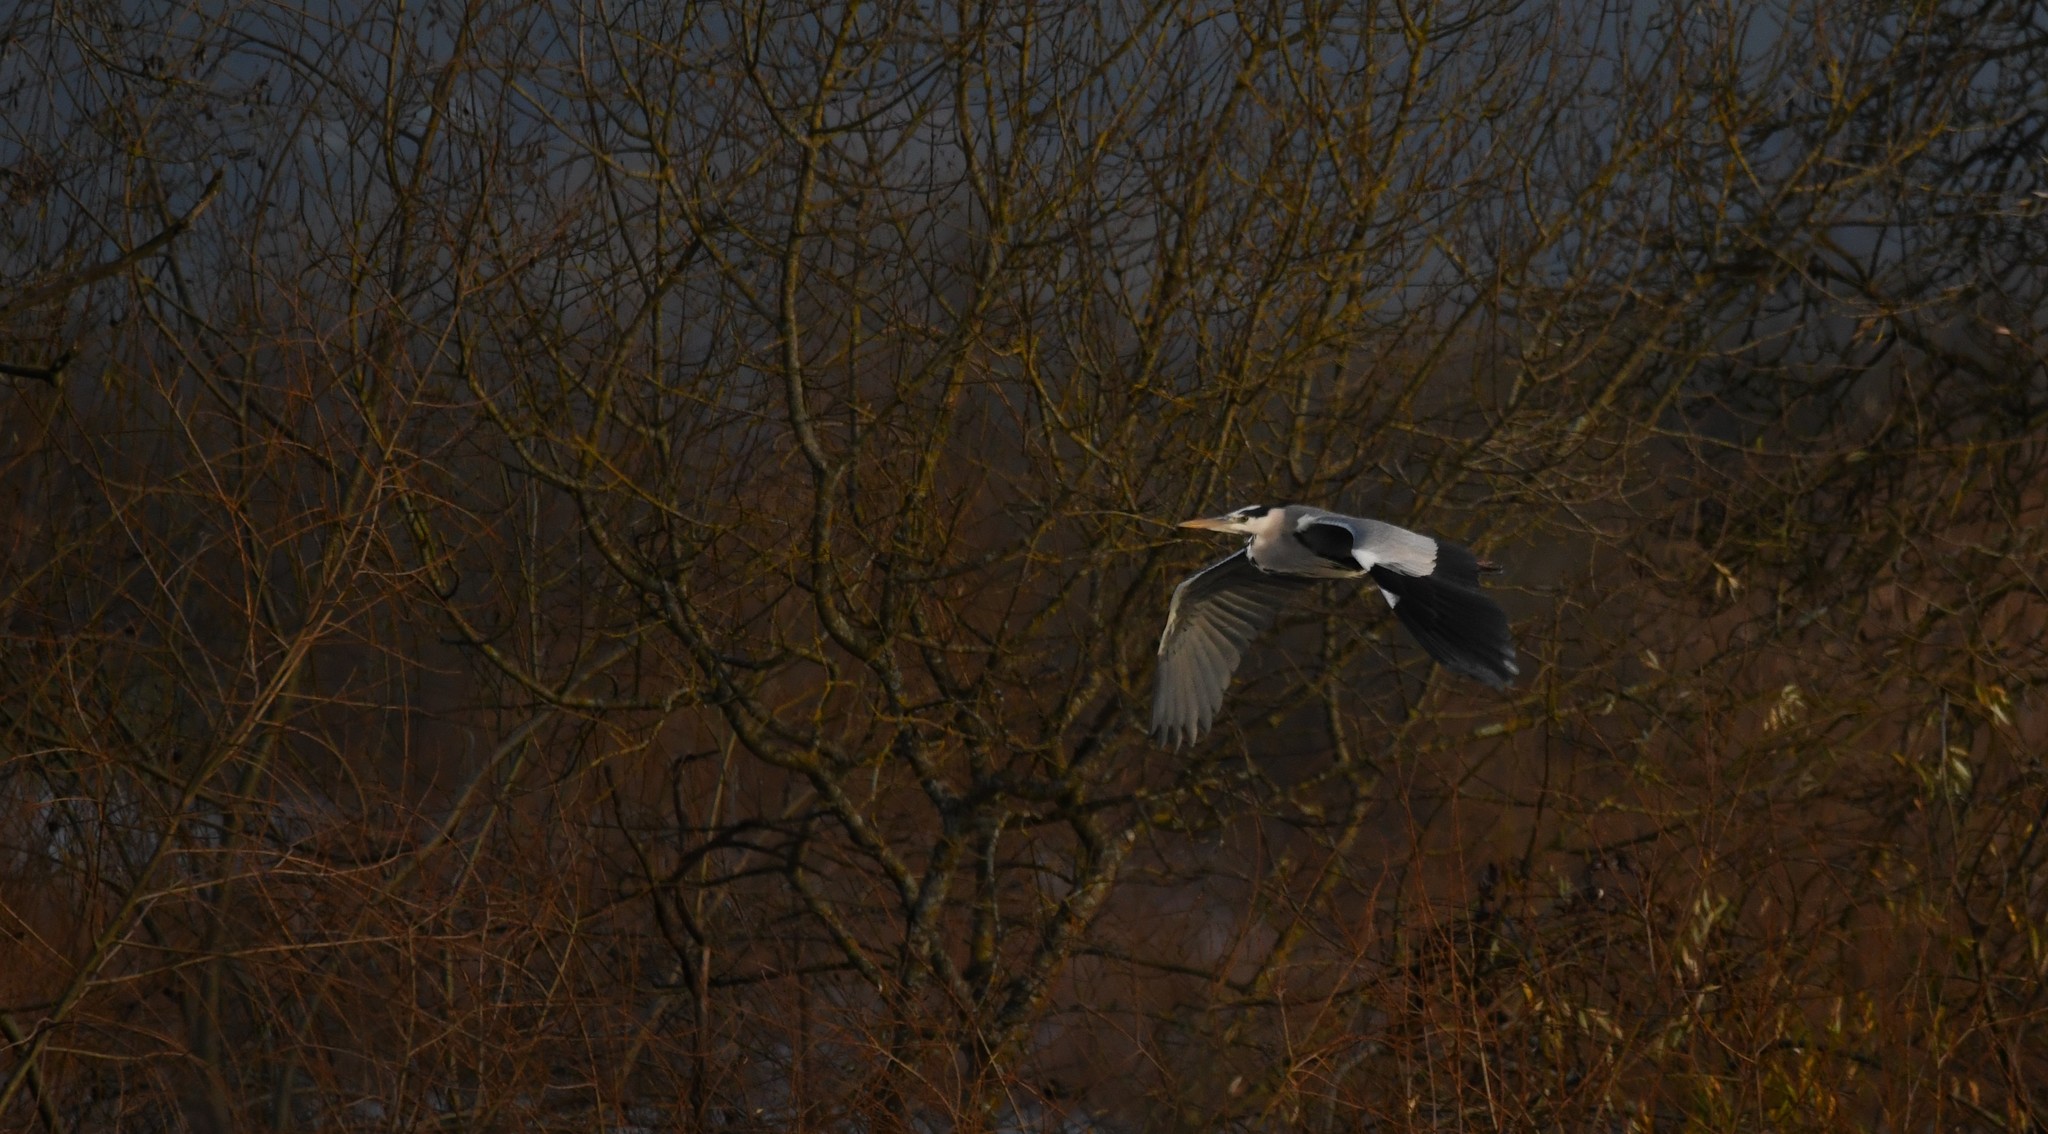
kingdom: Animalia
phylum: Chordata
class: Aves
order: Pelecaniformes
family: Ardeidae
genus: Ardea
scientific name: Ardea cinerea
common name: Grey heron
